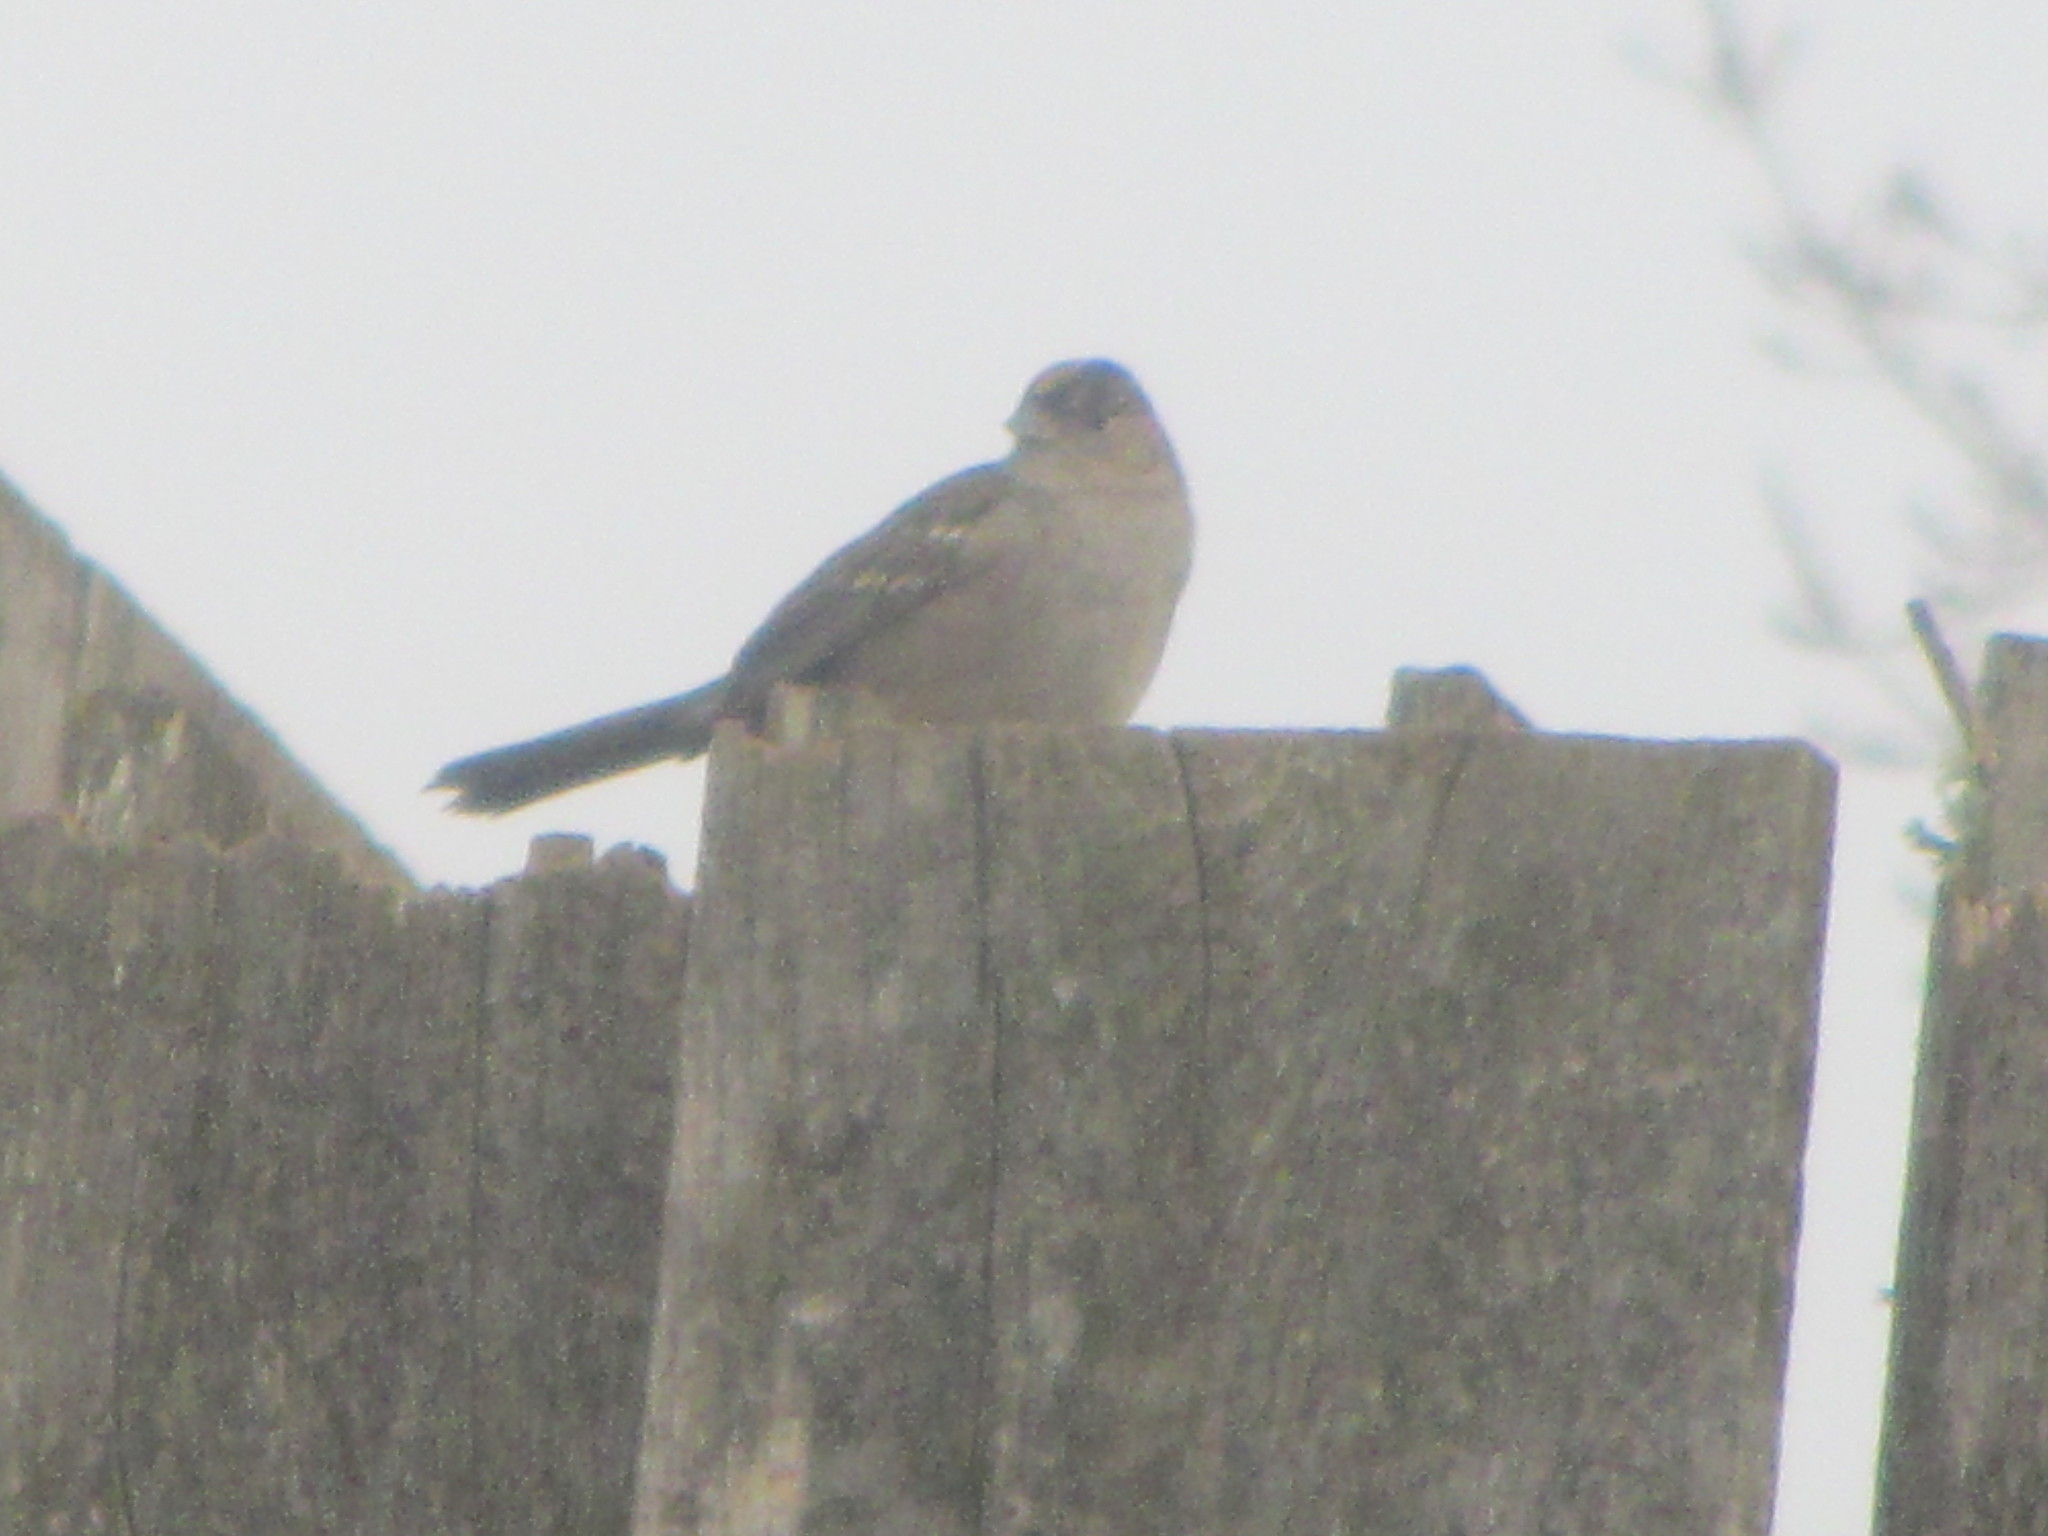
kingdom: Animalia
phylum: Chordata
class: Aves
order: Passeriformes
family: Passerellidae
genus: Zonotrichia
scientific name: Zonotrichia atricapilla
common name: Golden-crowned sparrow
